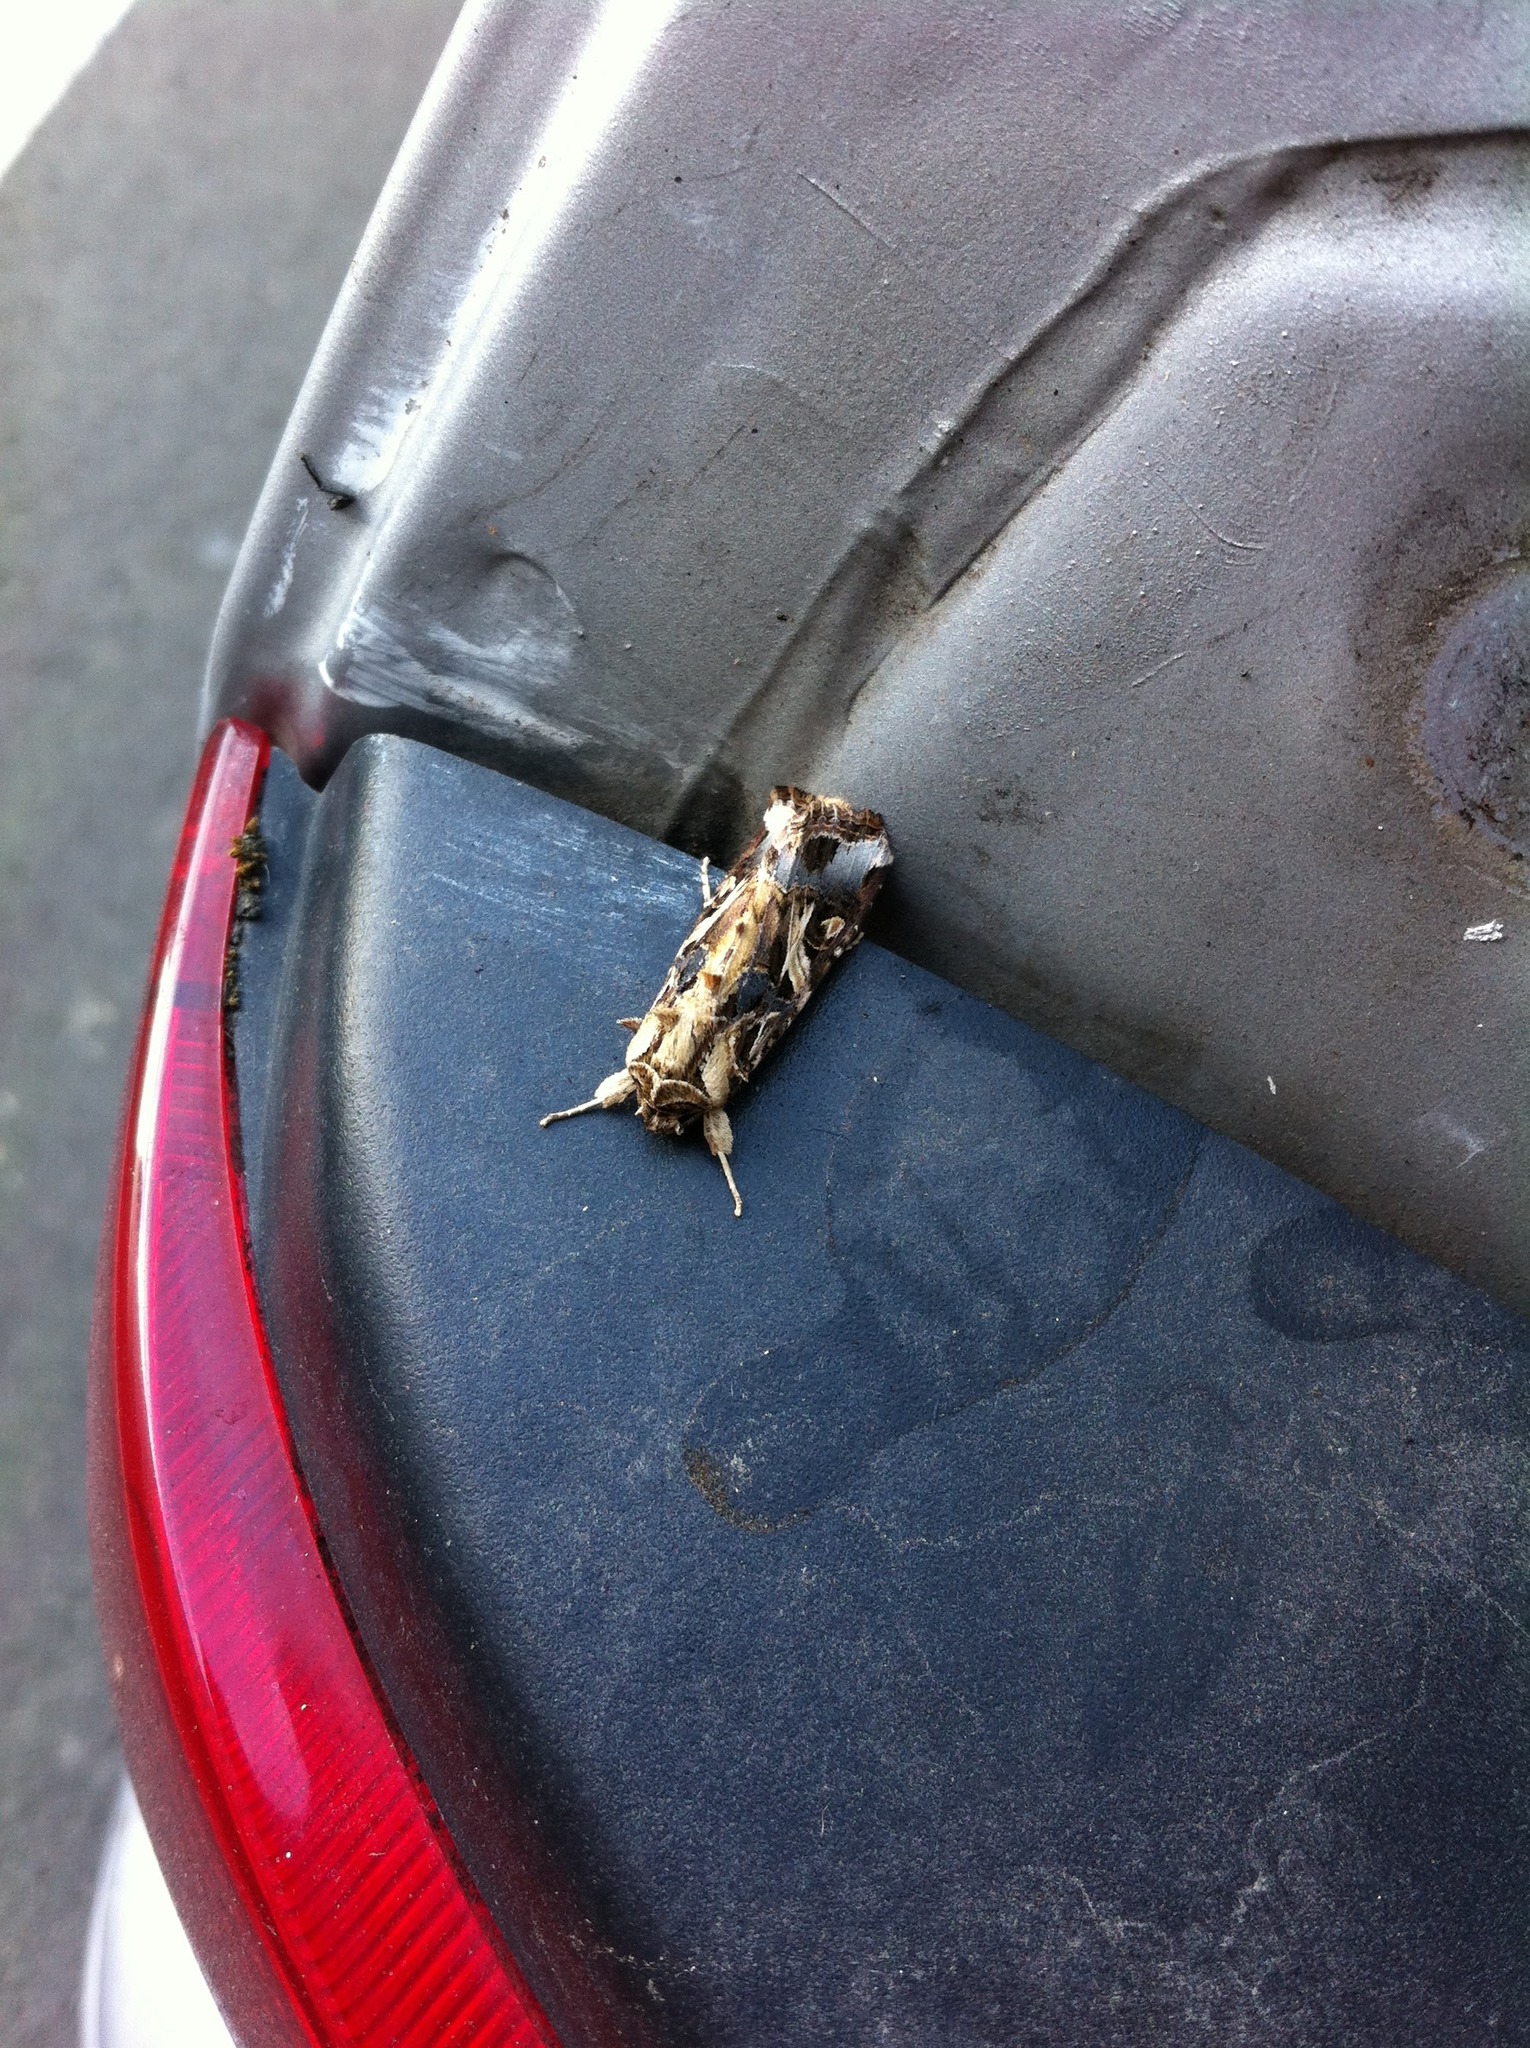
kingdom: Animalia
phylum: Arthropoda
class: Insecta
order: Lepidoptera
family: Noctuidae
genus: Spodoptera
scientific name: Spodoptera litura
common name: Asian cotton leafworm
